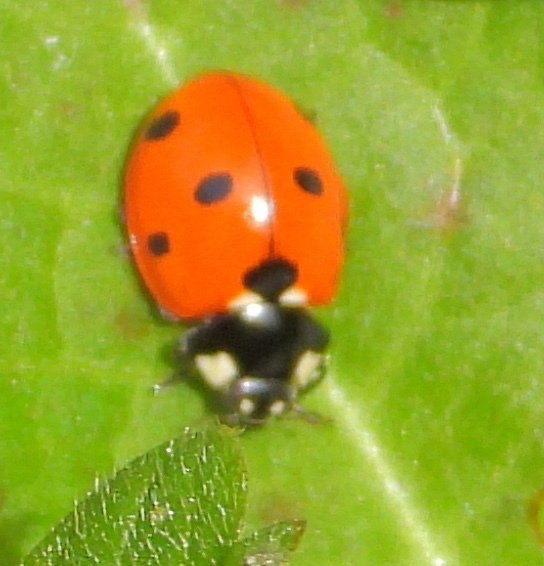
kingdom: Animalia
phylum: Arthropoda
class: Insecta
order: Coleoptera
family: Coccinellidae
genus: Coccinella
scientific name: Coccinella septempunctata
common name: Sevenspotted lady beetle
